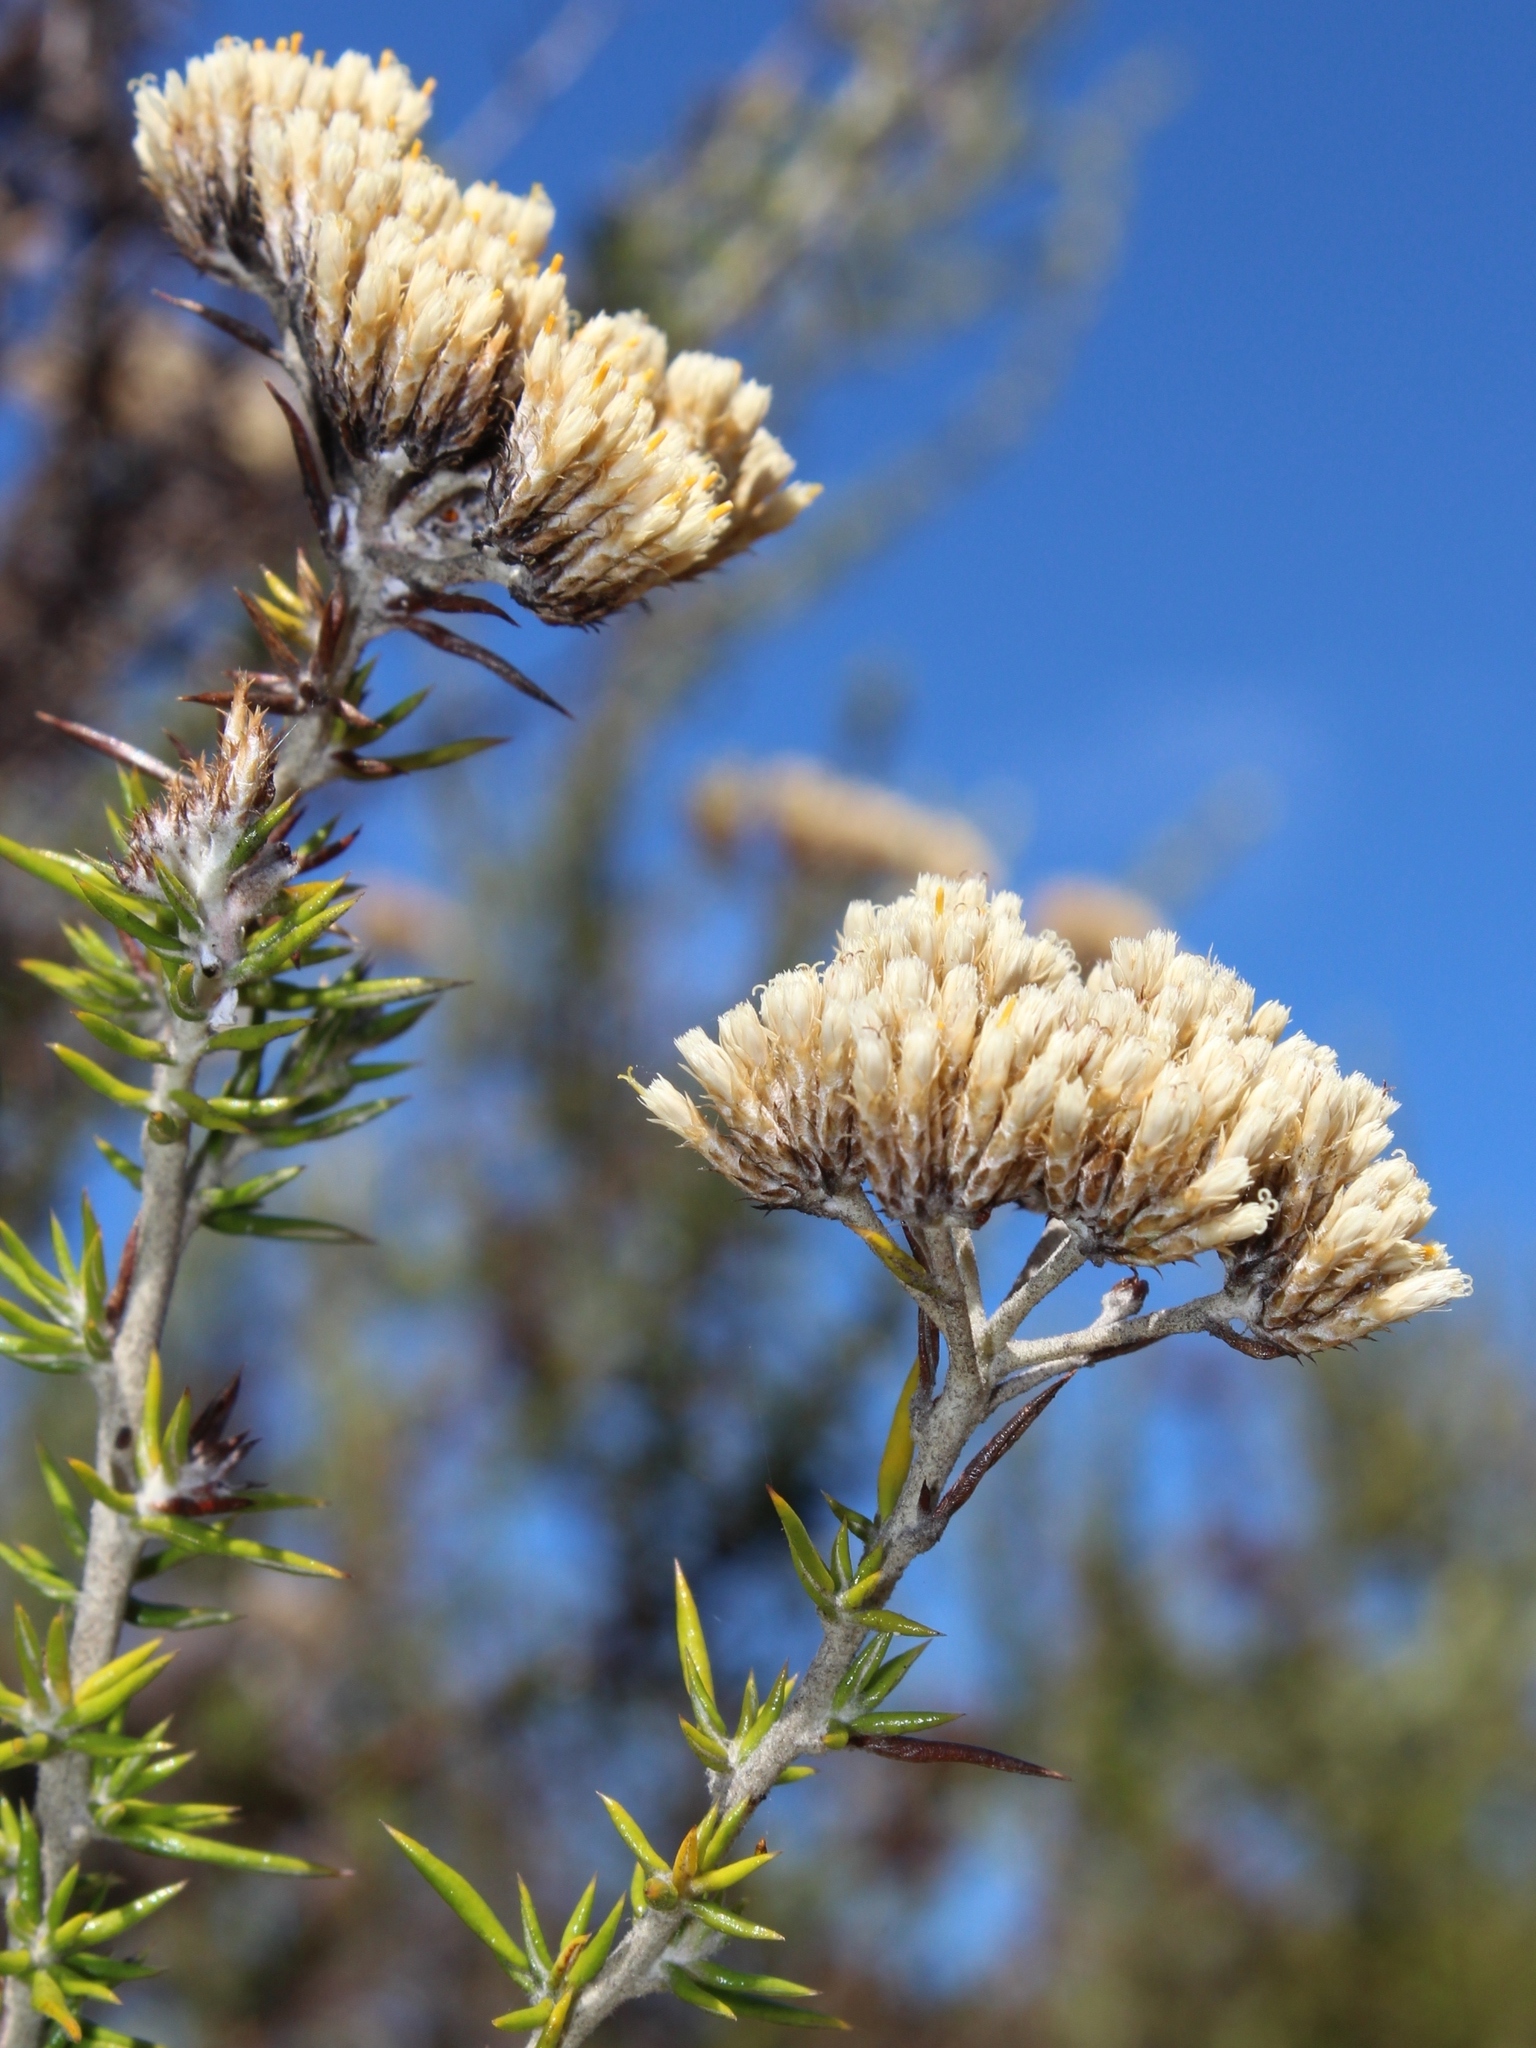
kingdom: Plantae
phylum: Tracheophyta
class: Magnoliopsida
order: Asterales
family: Asteraceae
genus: Metalasia
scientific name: Metalasia densa
